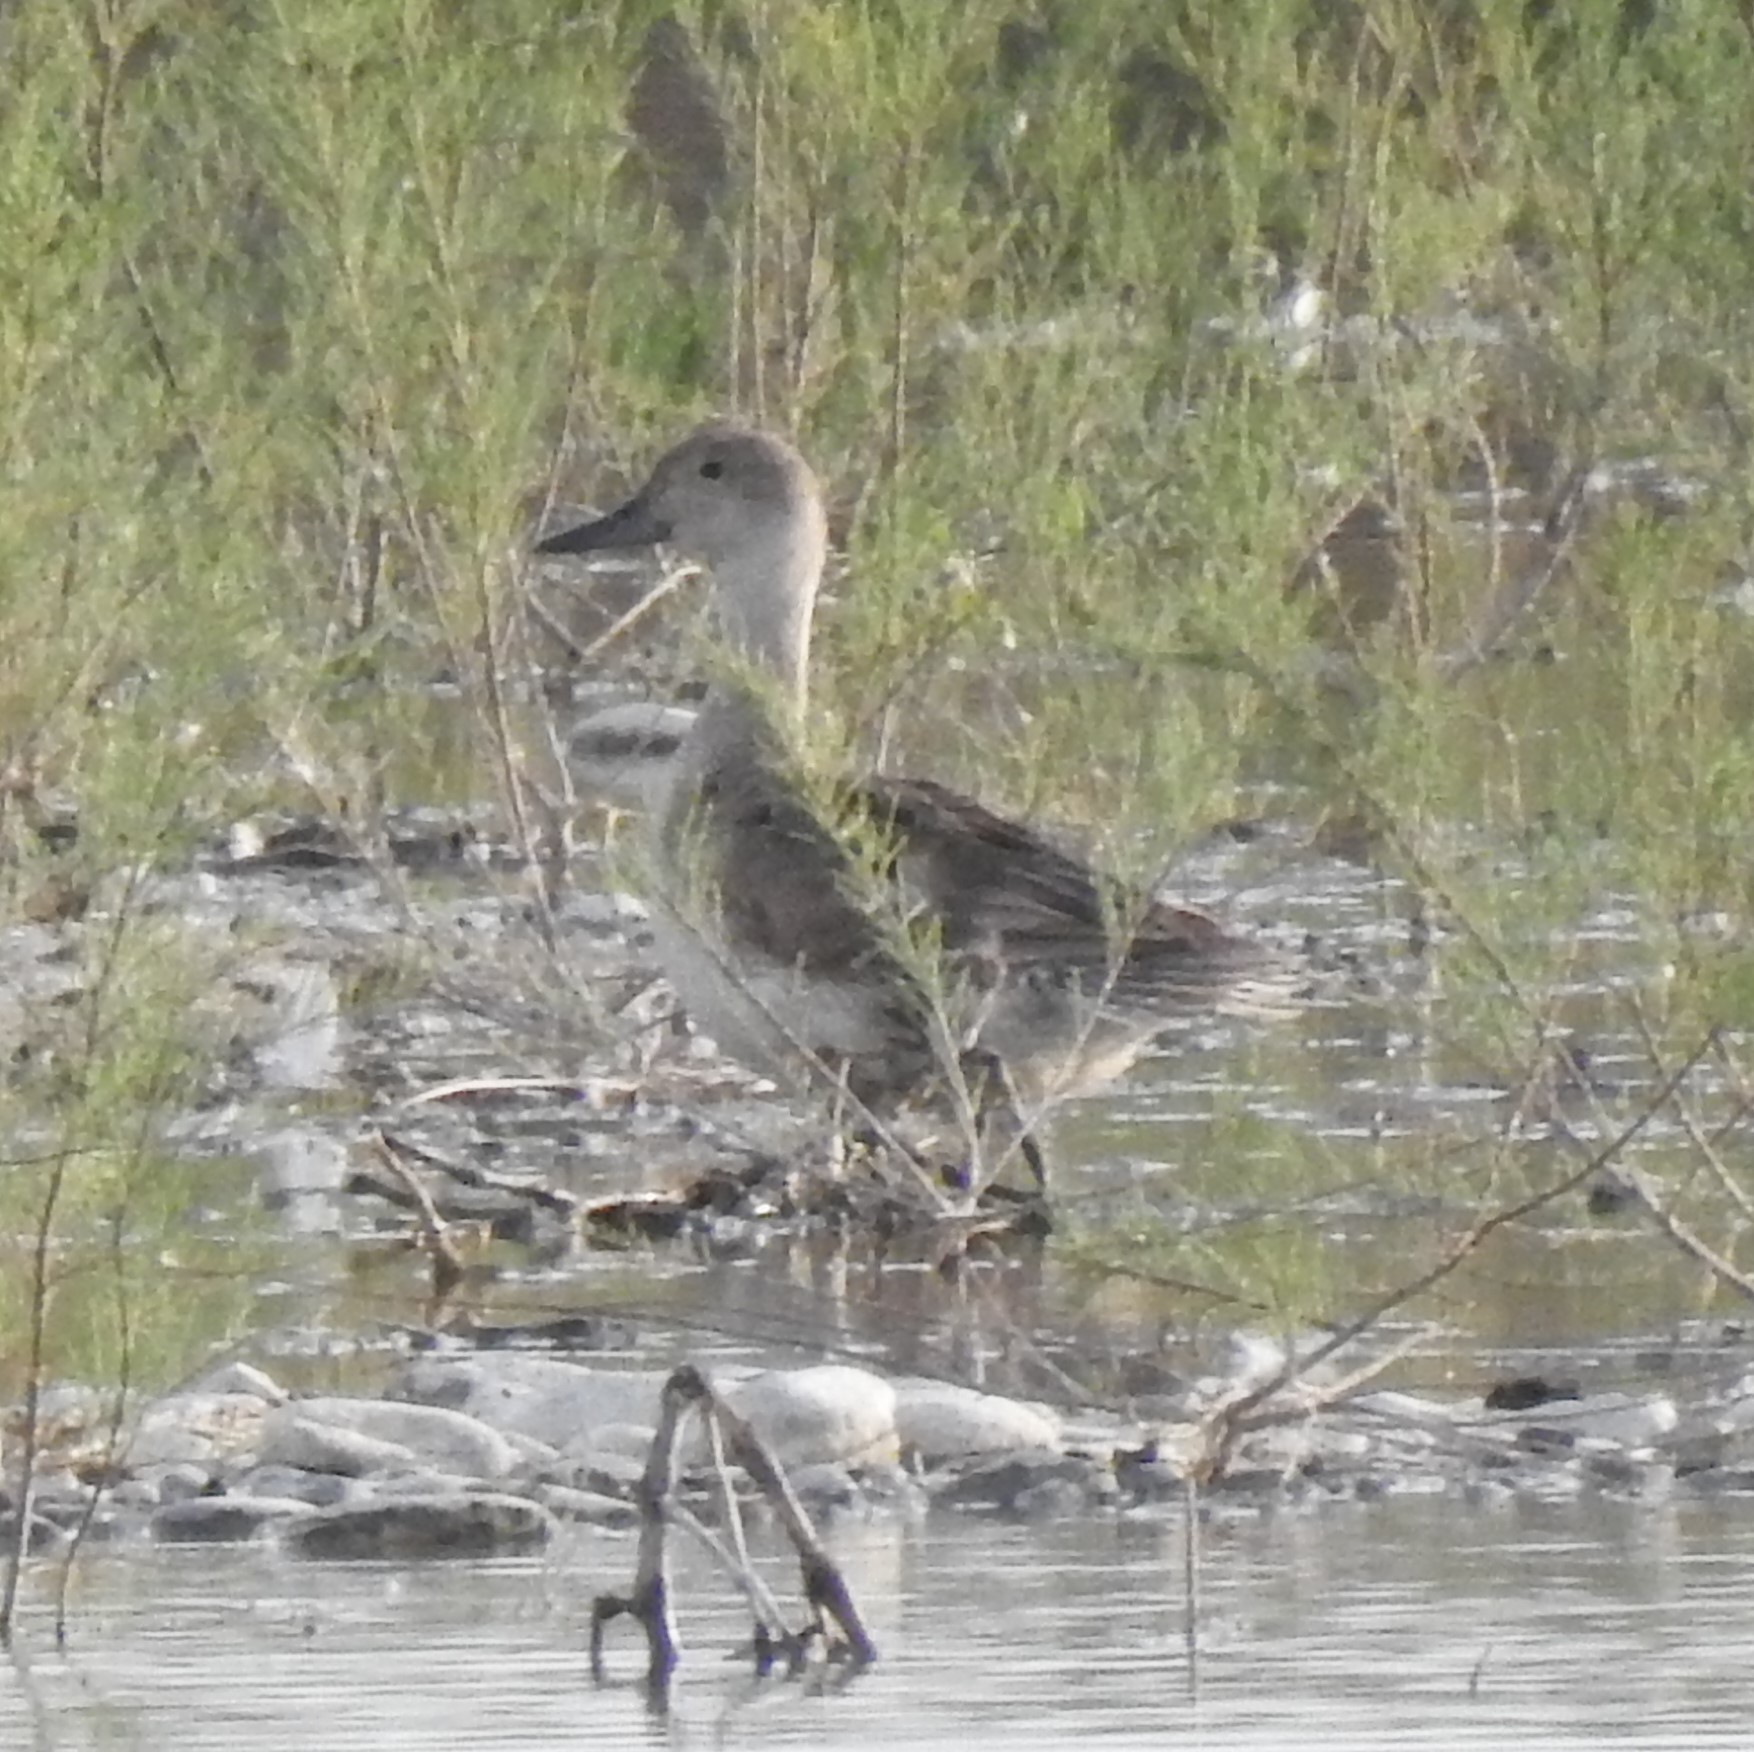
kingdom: Animalia
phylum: Chordata
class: Aves
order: Anseriformes
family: Anatidae
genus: Anas
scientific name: Anas acuta
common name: Northern pintail
